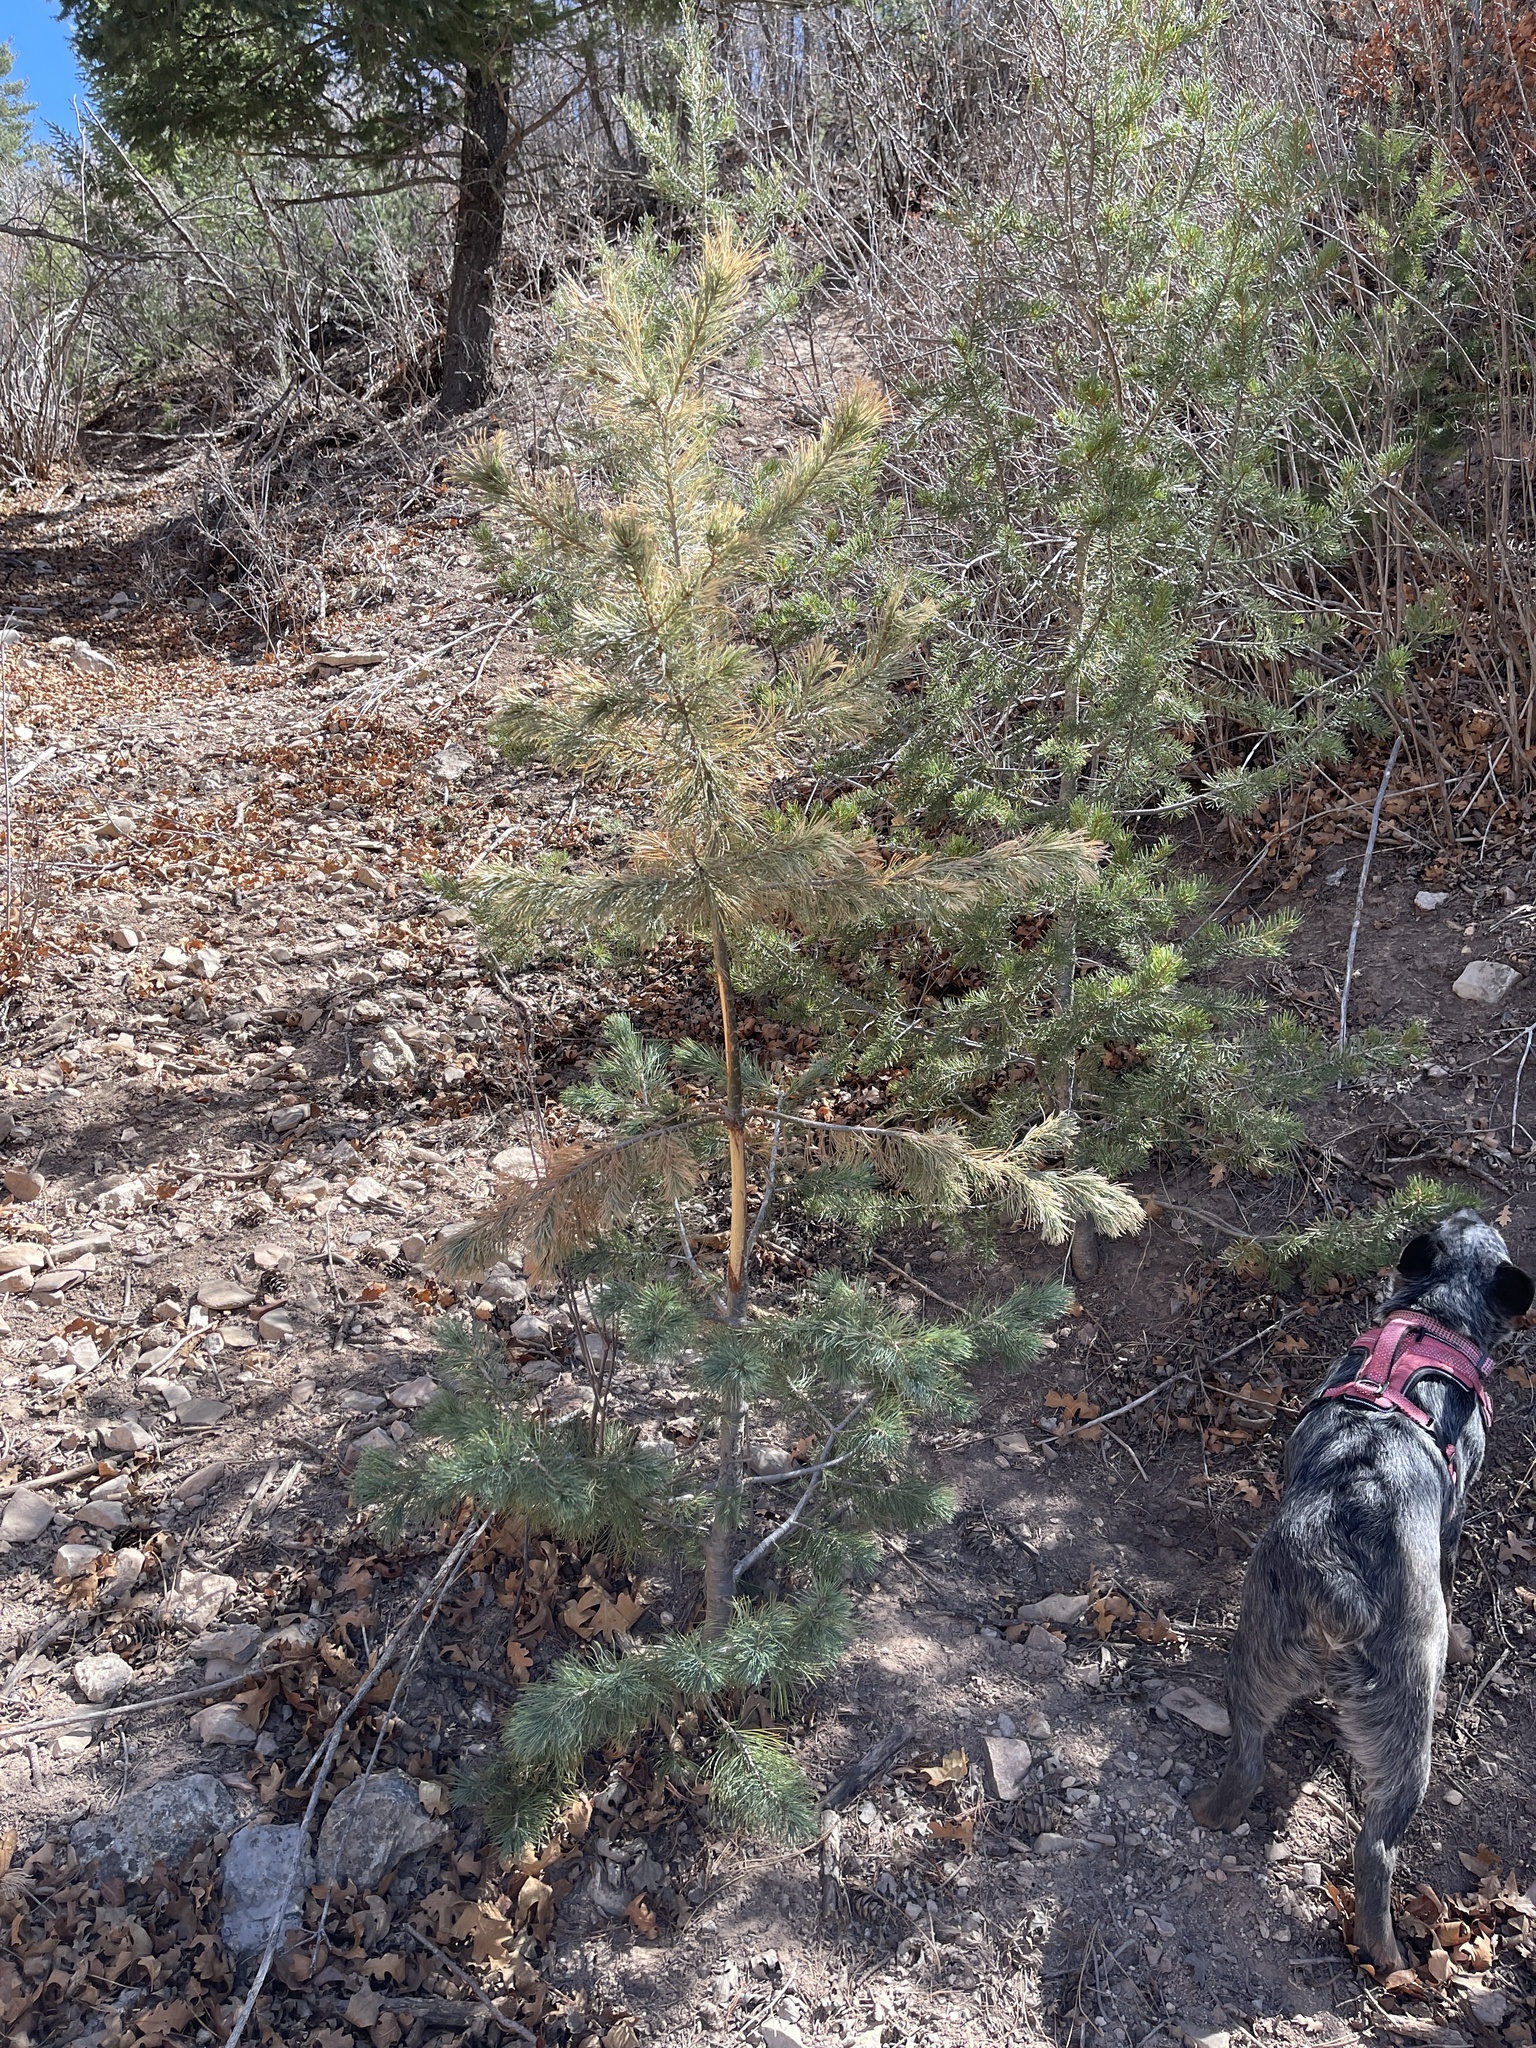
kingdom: Plantae
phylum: Tracheophyta
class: Pinopsida
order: Pinales
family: Pinaceae
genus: Pinus
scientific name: Pinus strobiformis
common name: Southwestern white pine
